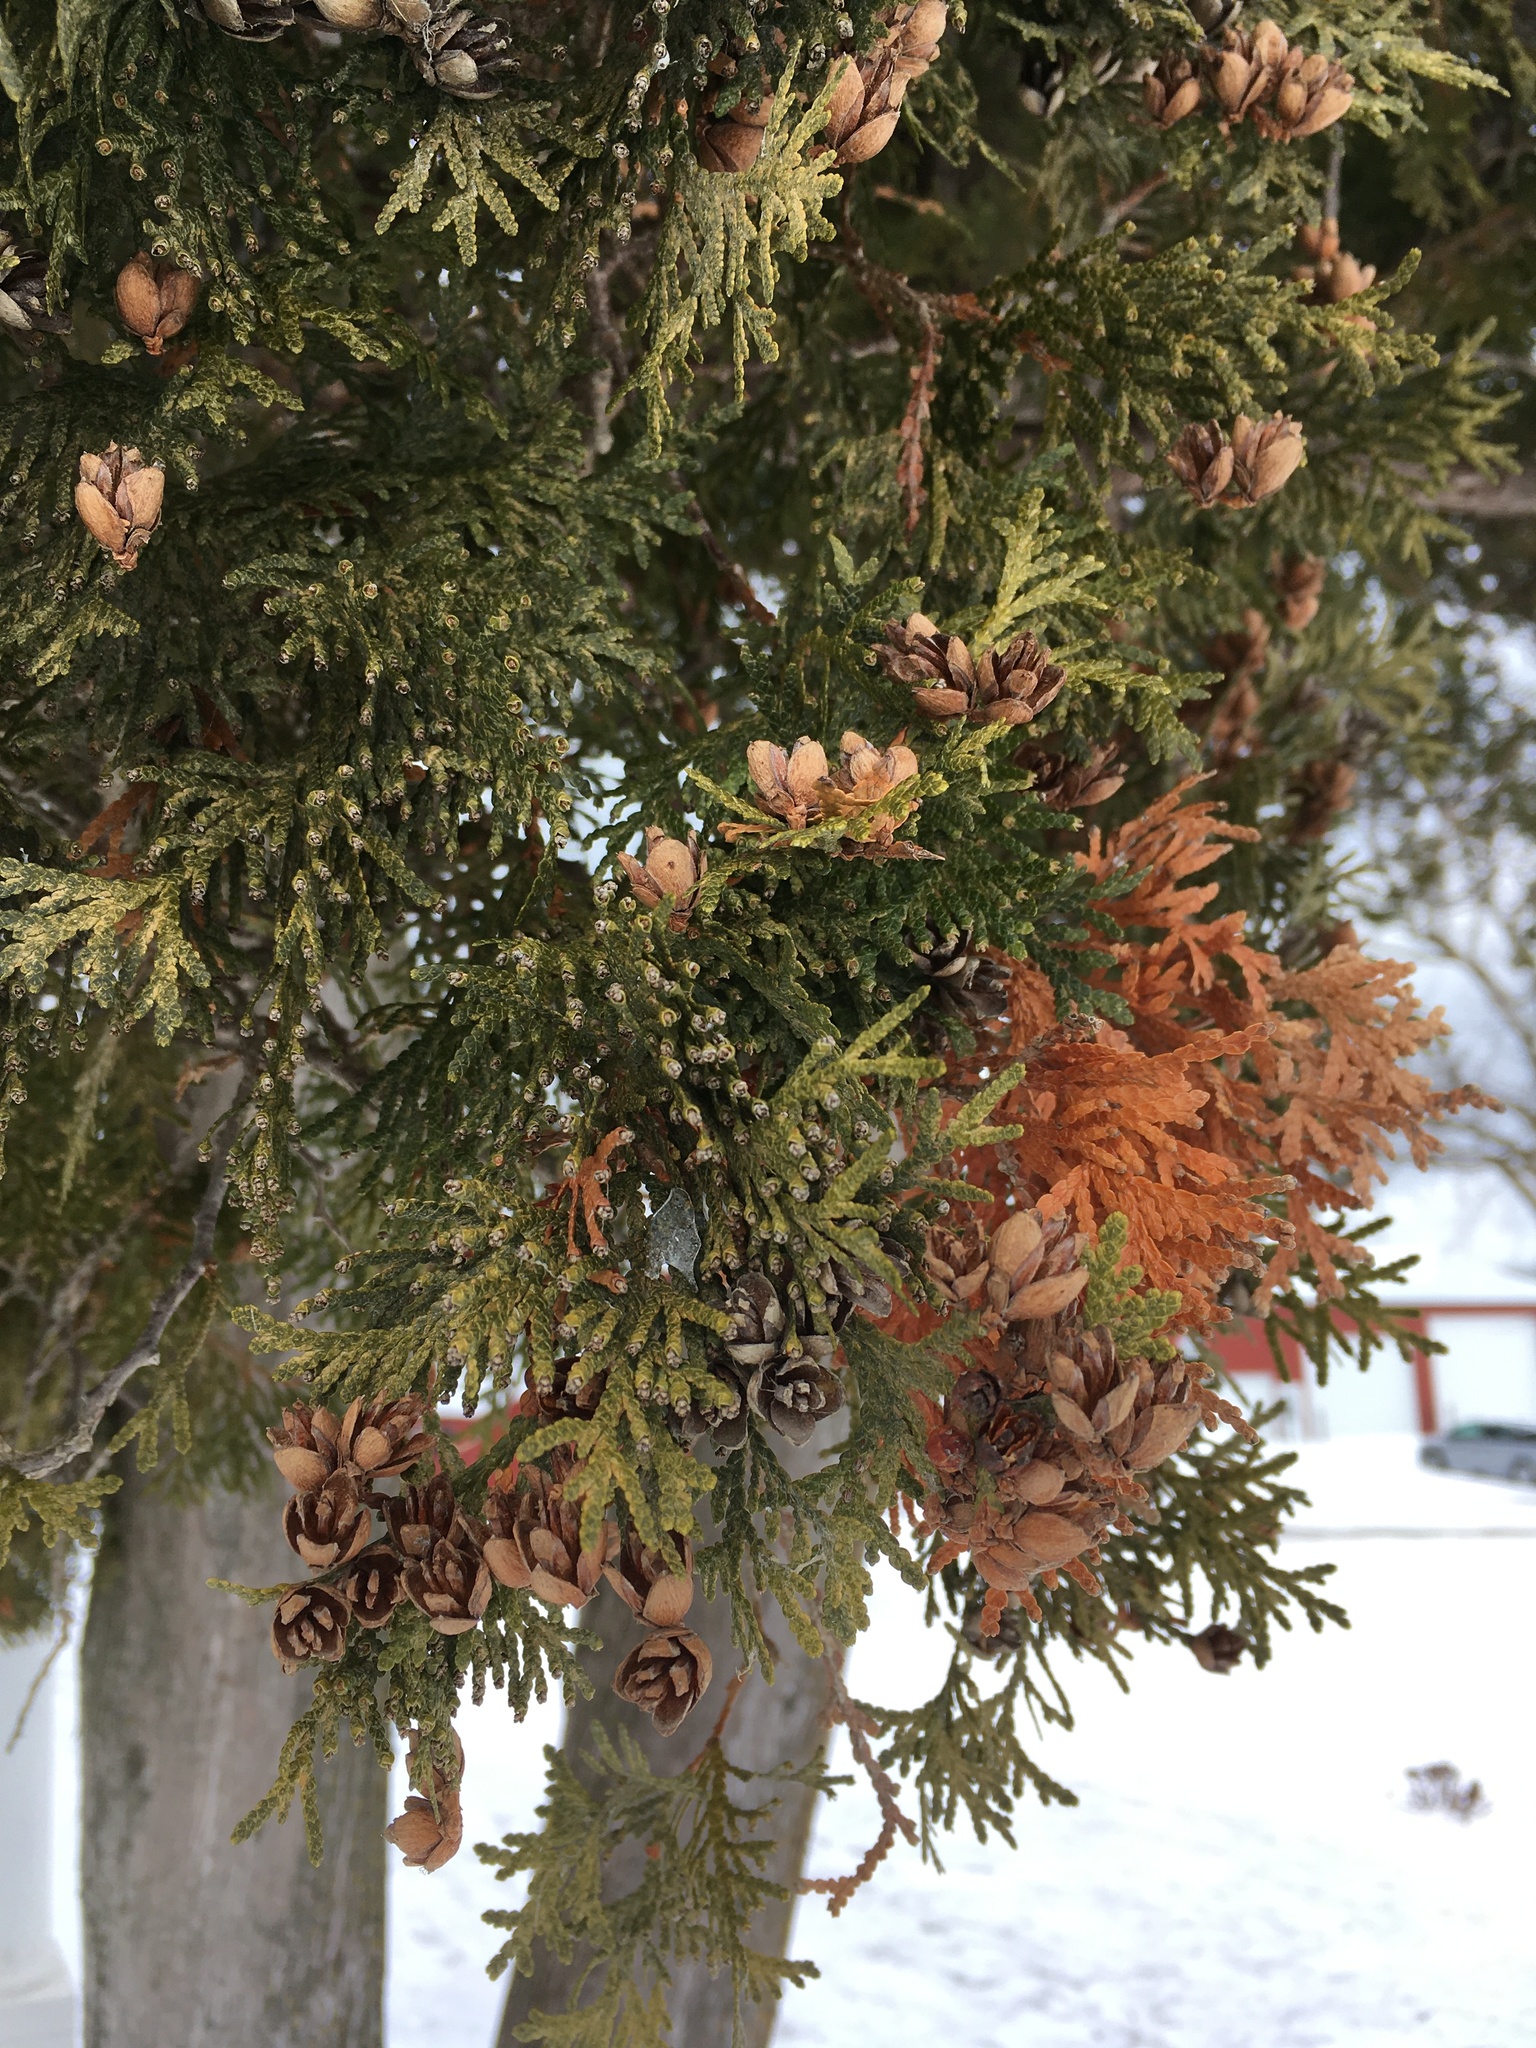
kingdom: Plantae
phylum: Tracheophyta
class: Pinopsida
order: Pinales
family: Cupressaceae
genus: Thuja
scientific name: Thuja occidentalis
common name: Northern white-cedar
